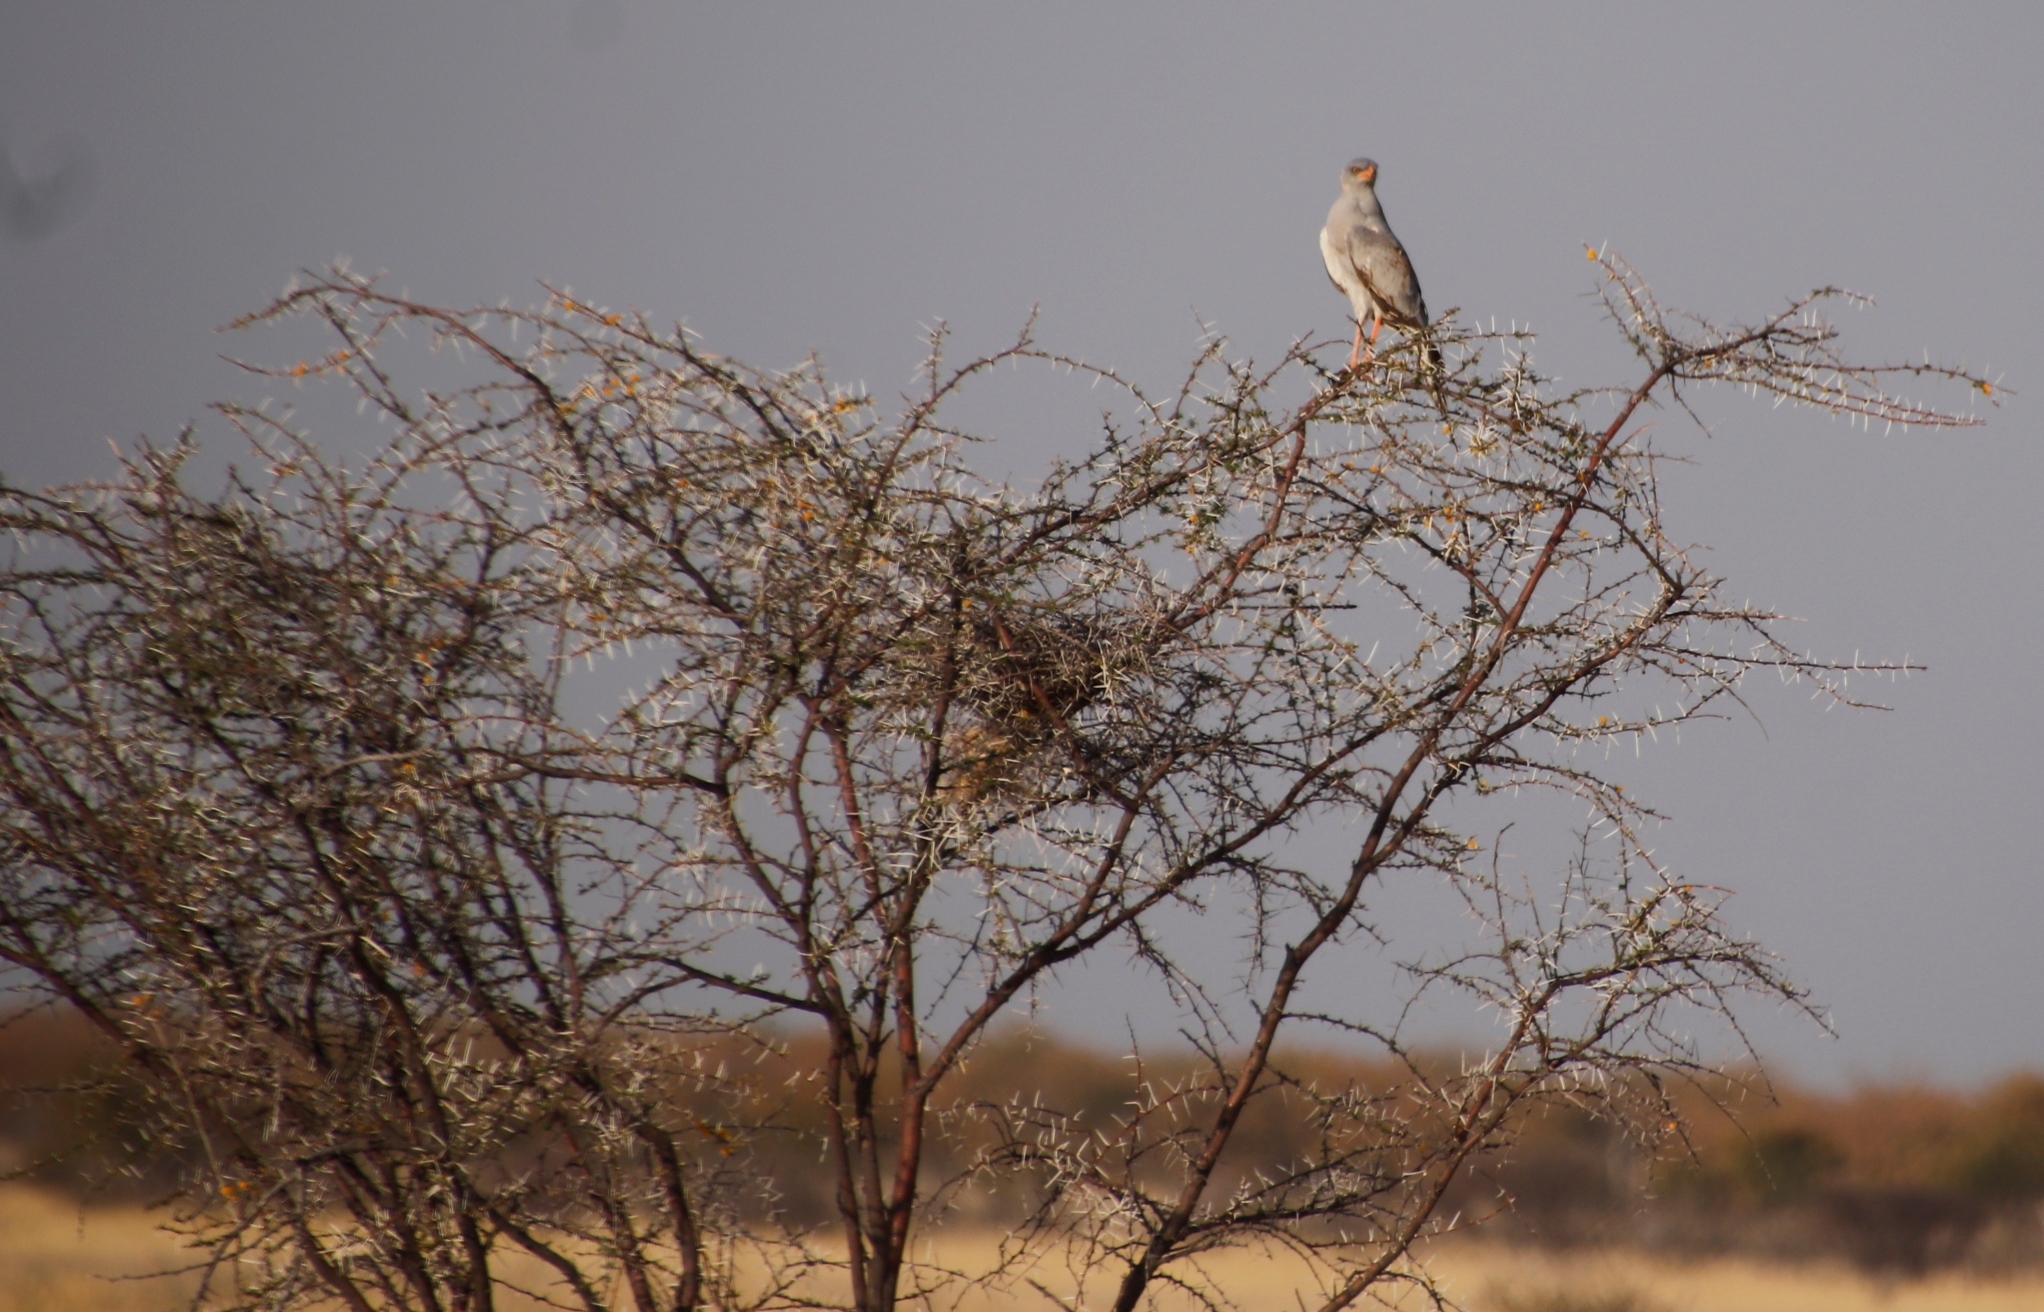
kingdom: Animalia
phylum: Chordata
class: Aves
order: Accipitriformes
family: Accipitridae
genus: Melierax
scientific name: Melierax canorus
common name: Pale chanting-goshawk
